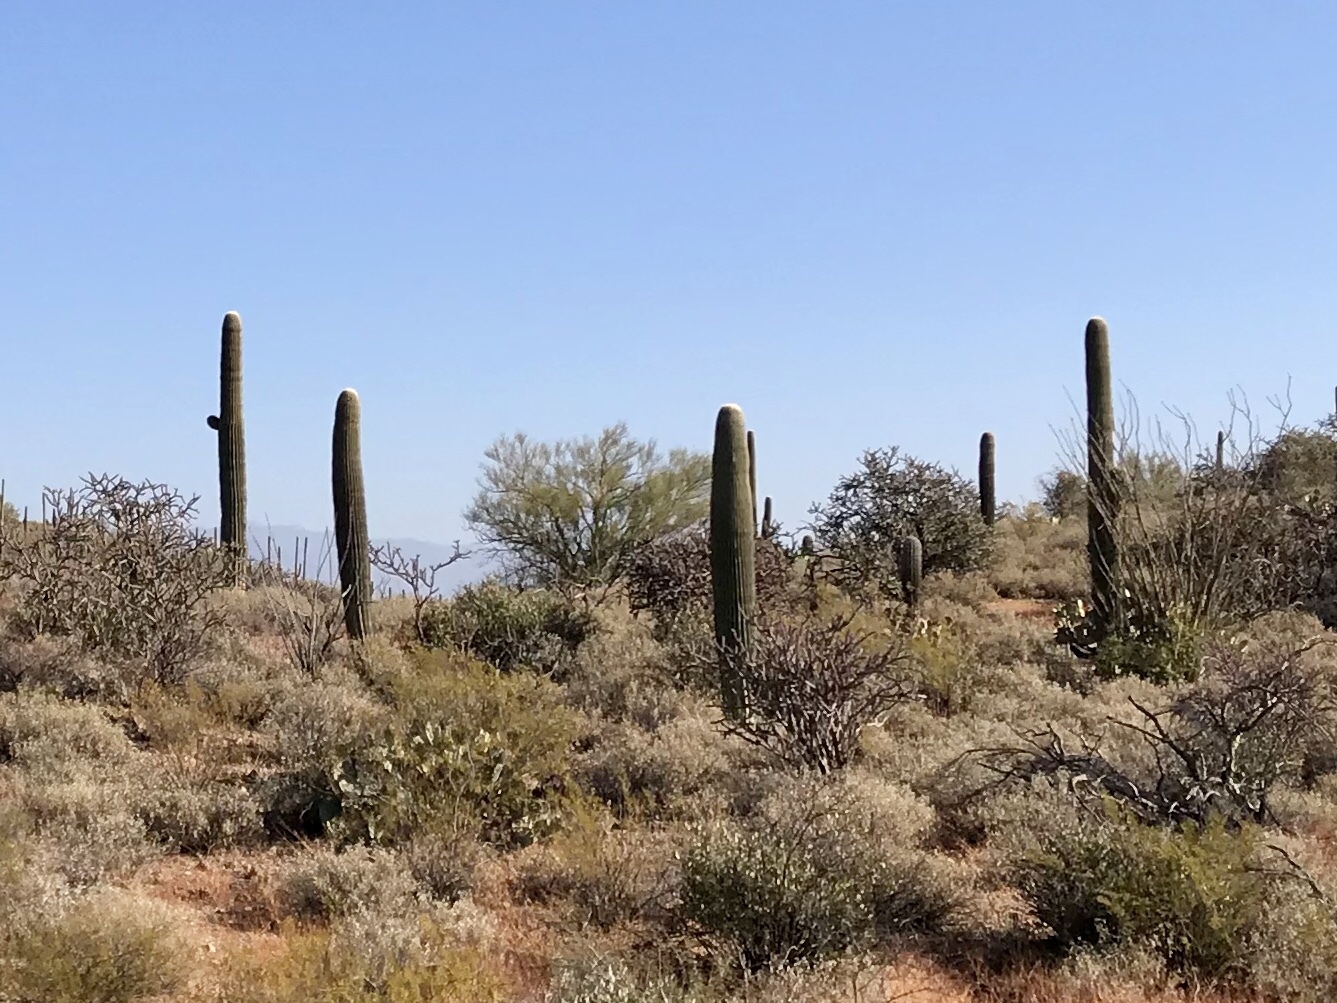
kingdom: Plantae
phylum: Tracheophyta
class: Magnoliopsida
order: Caryophyllales
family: Cactaceae
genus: Carnegiea
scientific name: Carnegiea gigantea
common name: Saguaro
